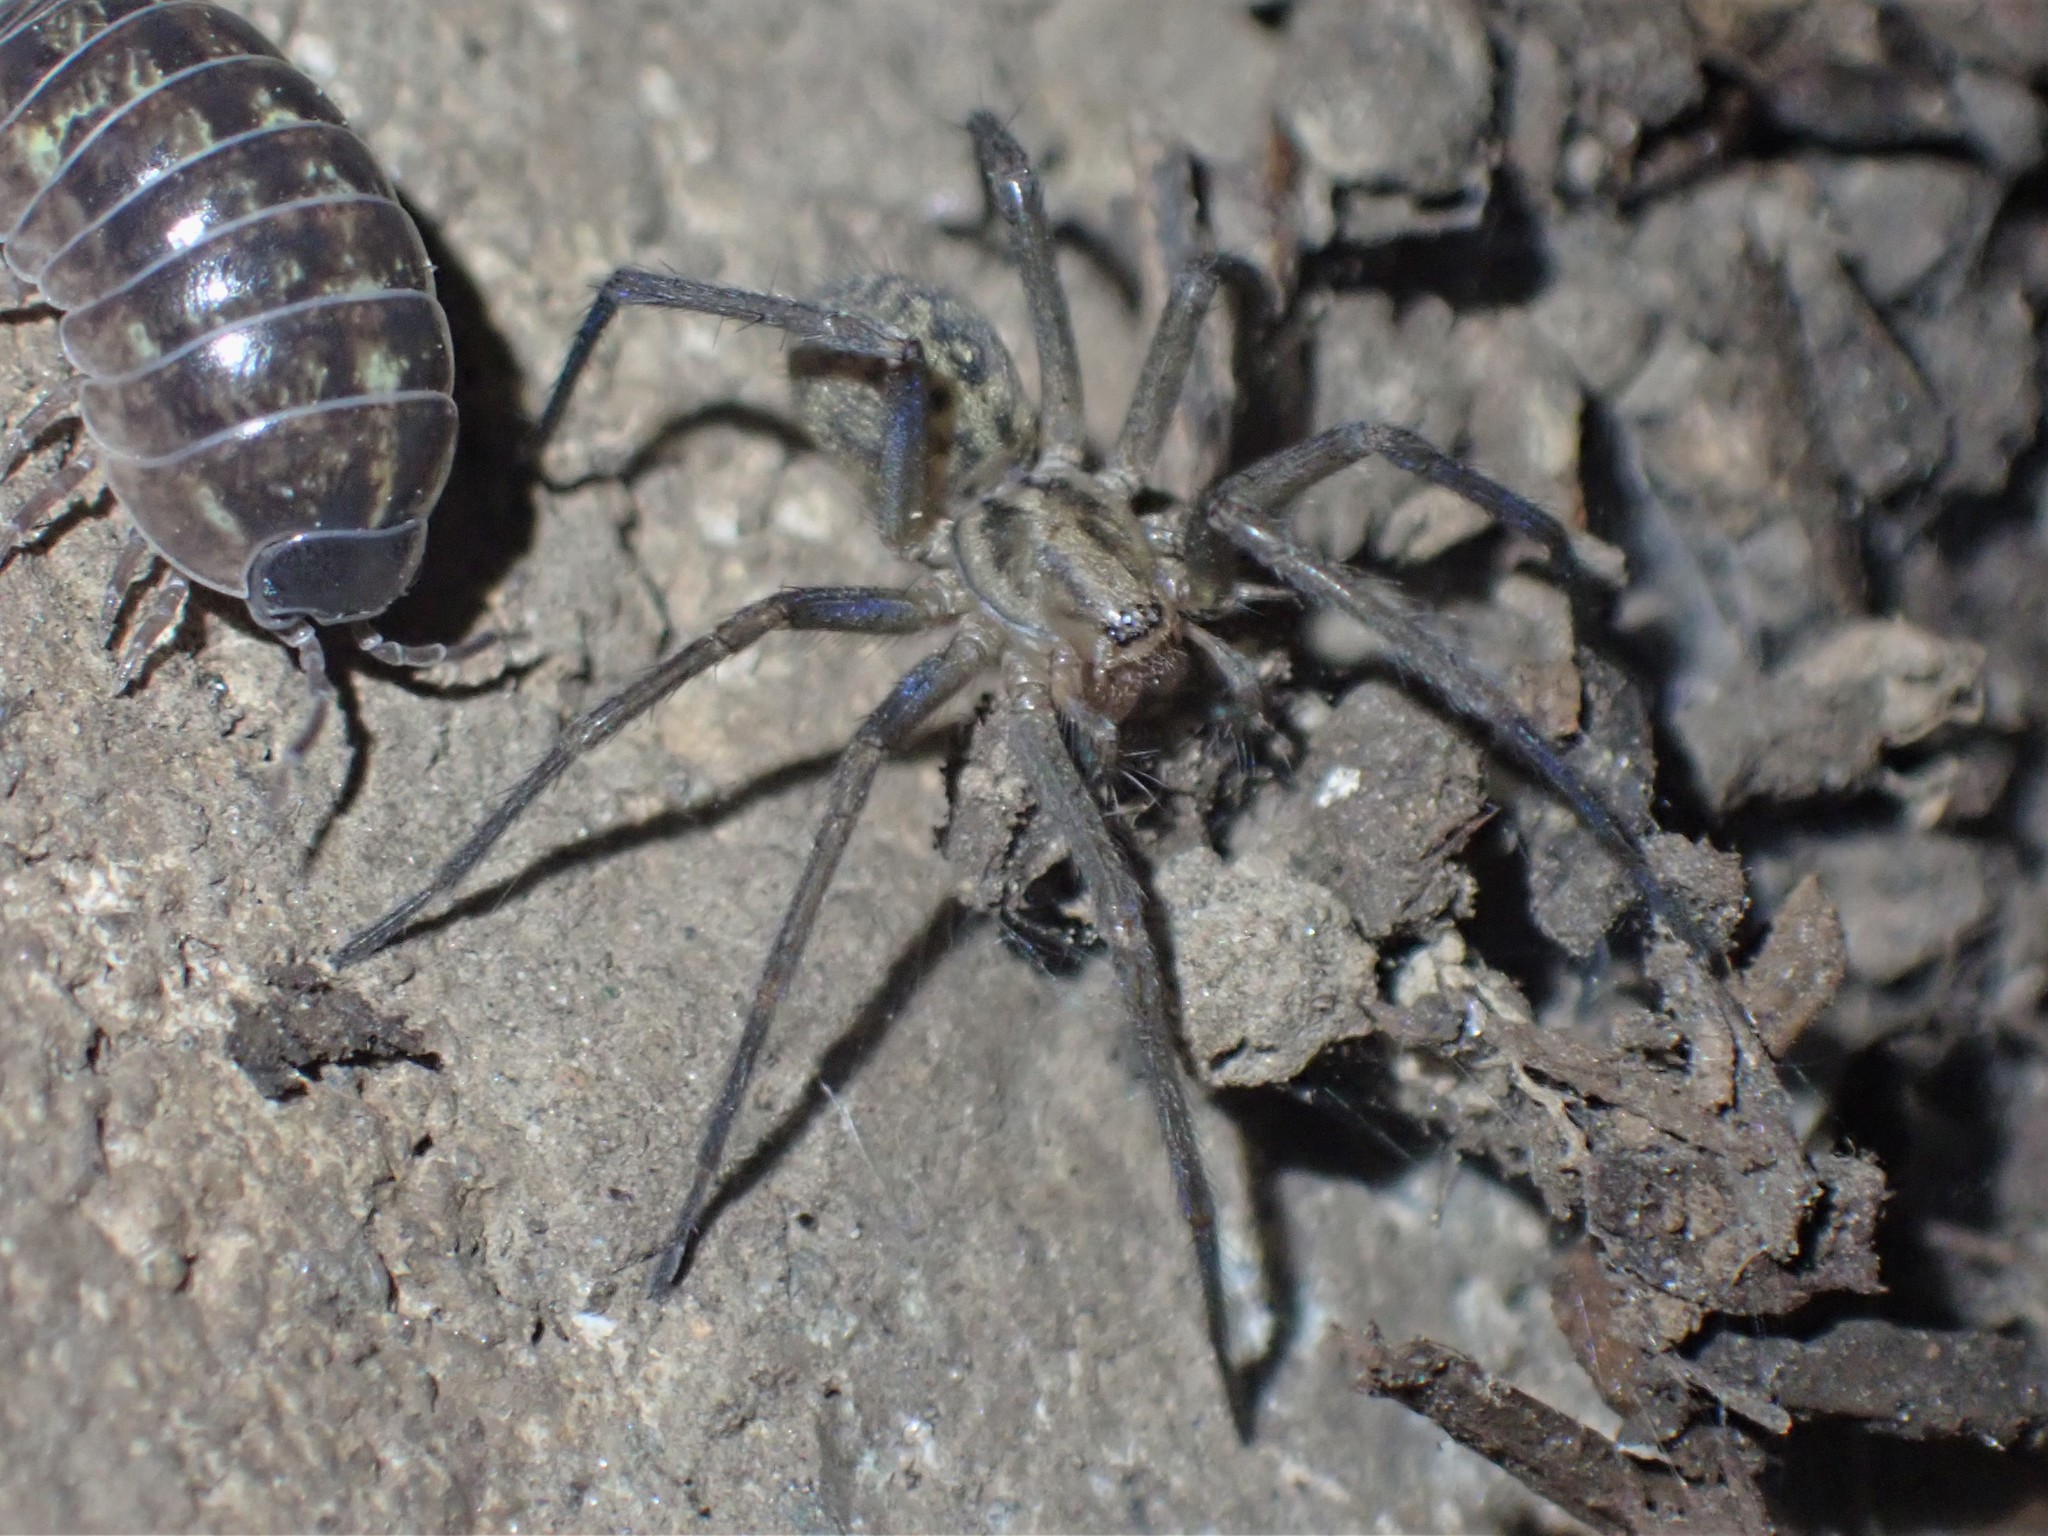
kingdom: Animalia
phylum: Arthropoda
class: Arachnida
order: Araneae
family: Agelenidae
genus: Eratigena
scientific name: Eratigena duellica
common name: Giant house spider
